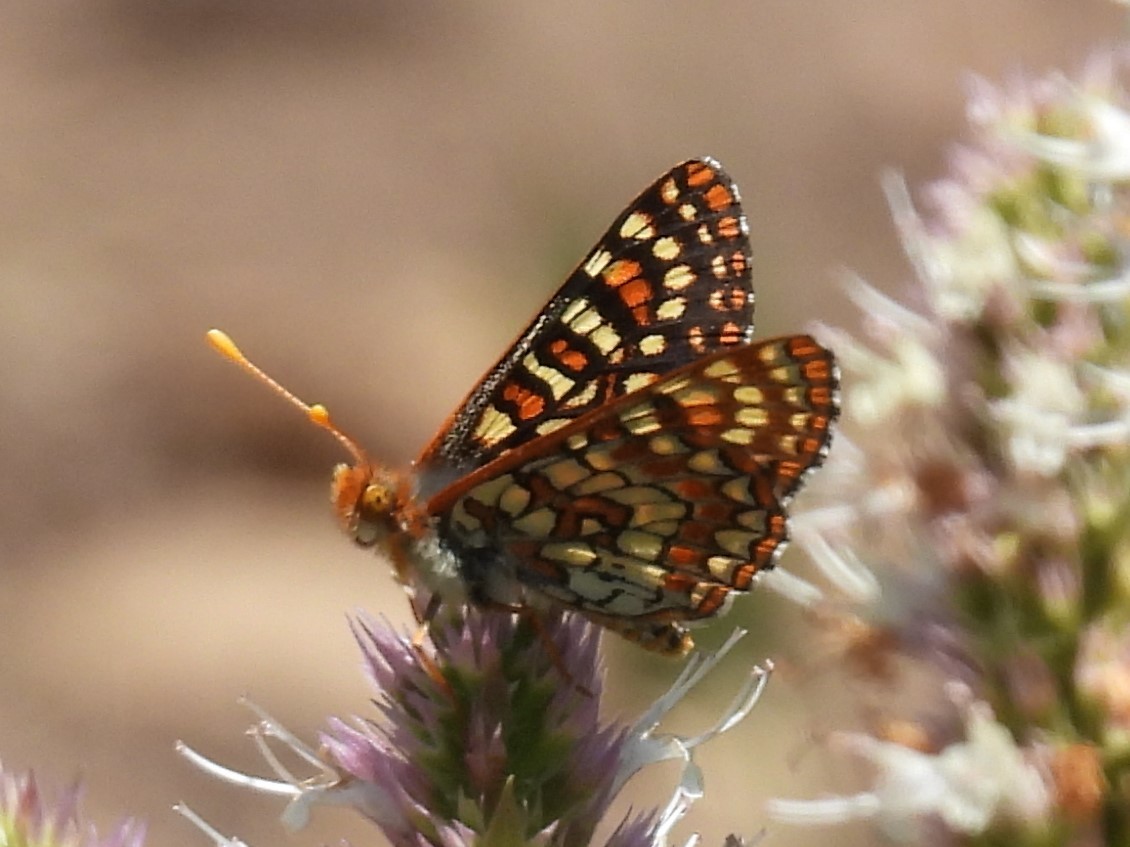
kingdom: Animalia
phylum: Arthropoda
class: Insecta
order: Lepidoptera
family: Nymphalidae
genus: Occidryas
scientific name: Occidryas anicia
